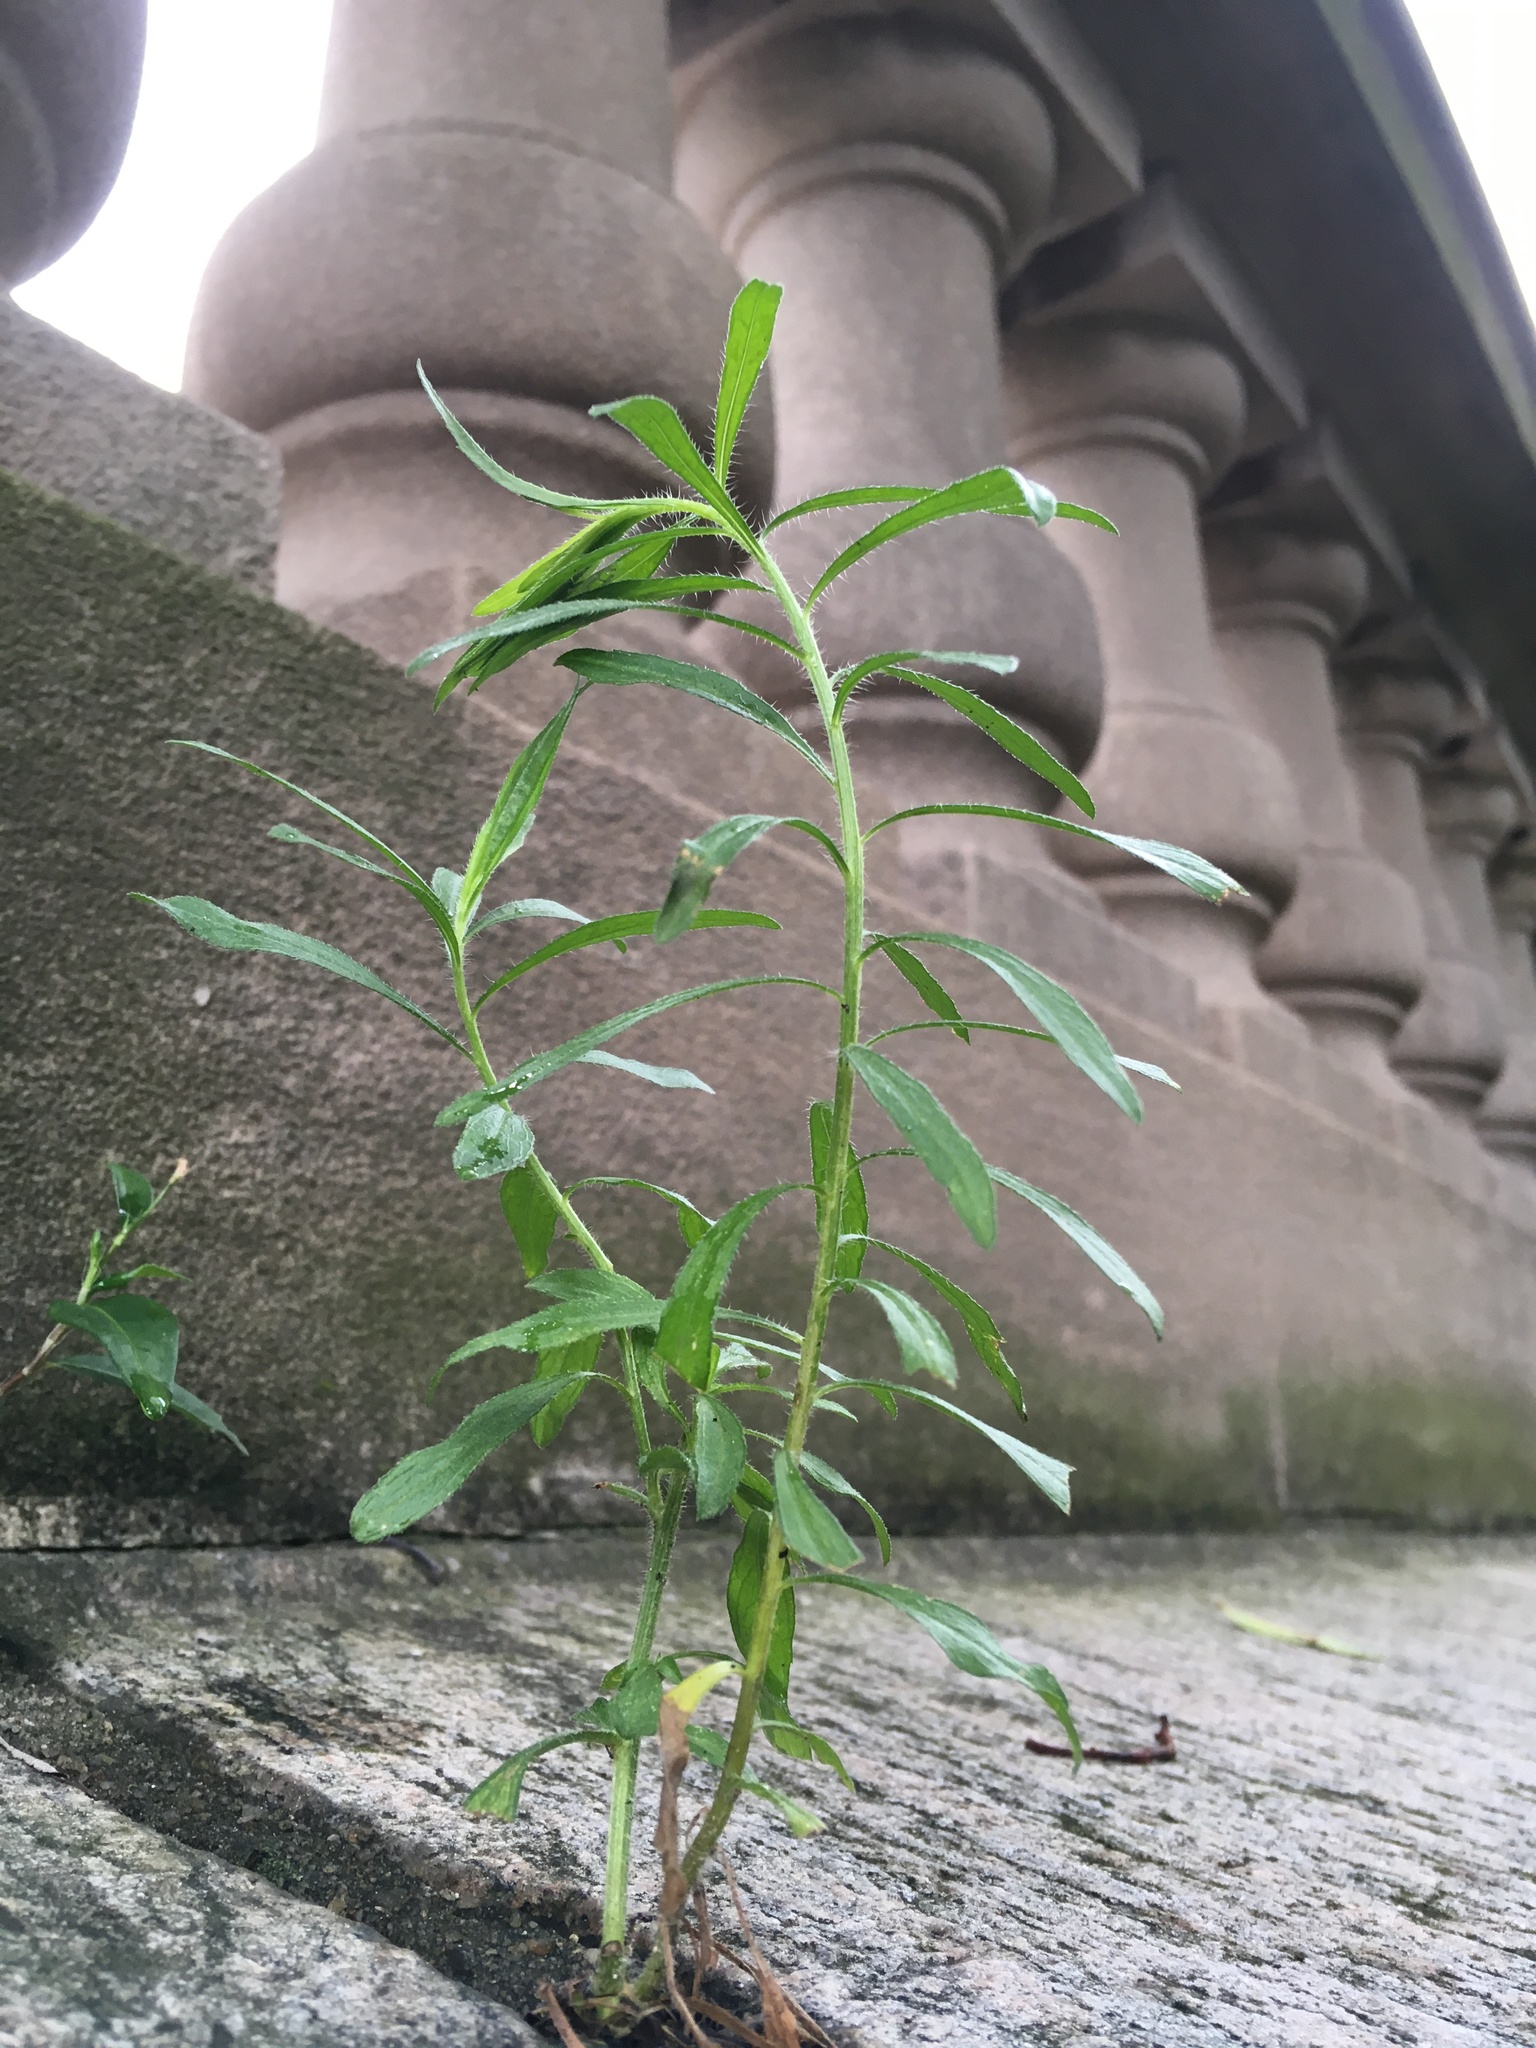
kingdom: Plantae
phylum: Tracheophyta
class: Magnoliopsida
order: Asterales
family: Asteraceae
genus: Erigeron
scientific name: Erigeron canadensis
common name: Canadian fleabane
